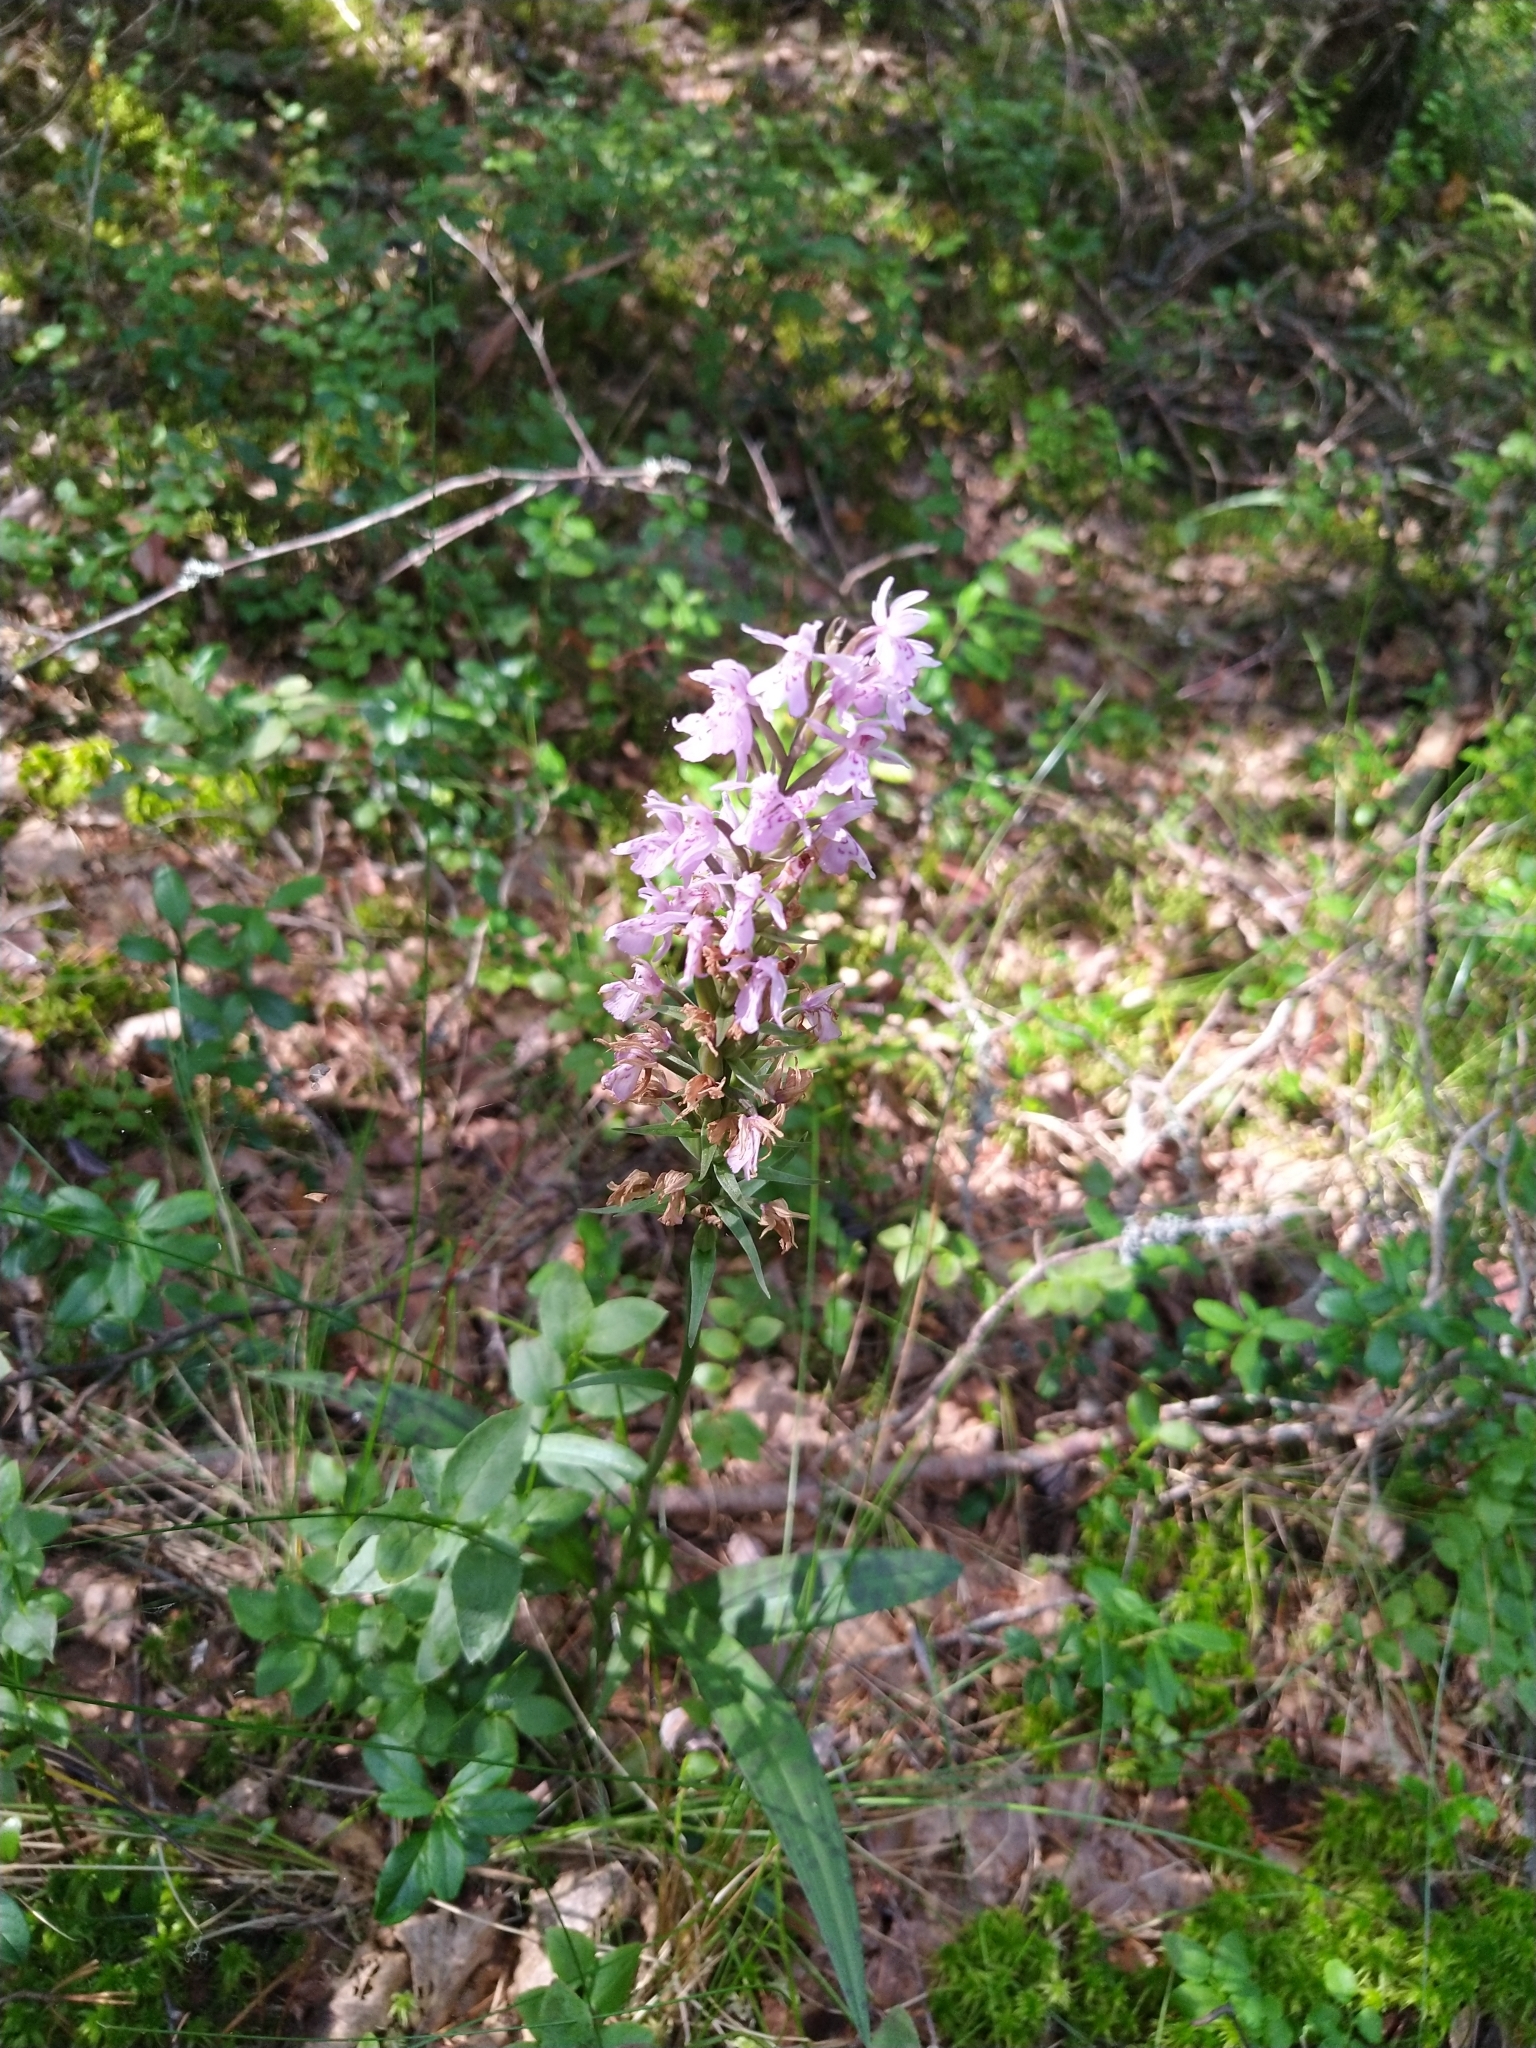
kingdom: Plantae
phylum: Tracheophyta
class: Liliopsida
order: Asparagales
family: Orchidaceae
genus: Dactylorhiza
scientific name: Dactylorhiza maculata
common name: Heath spotted-orchid
